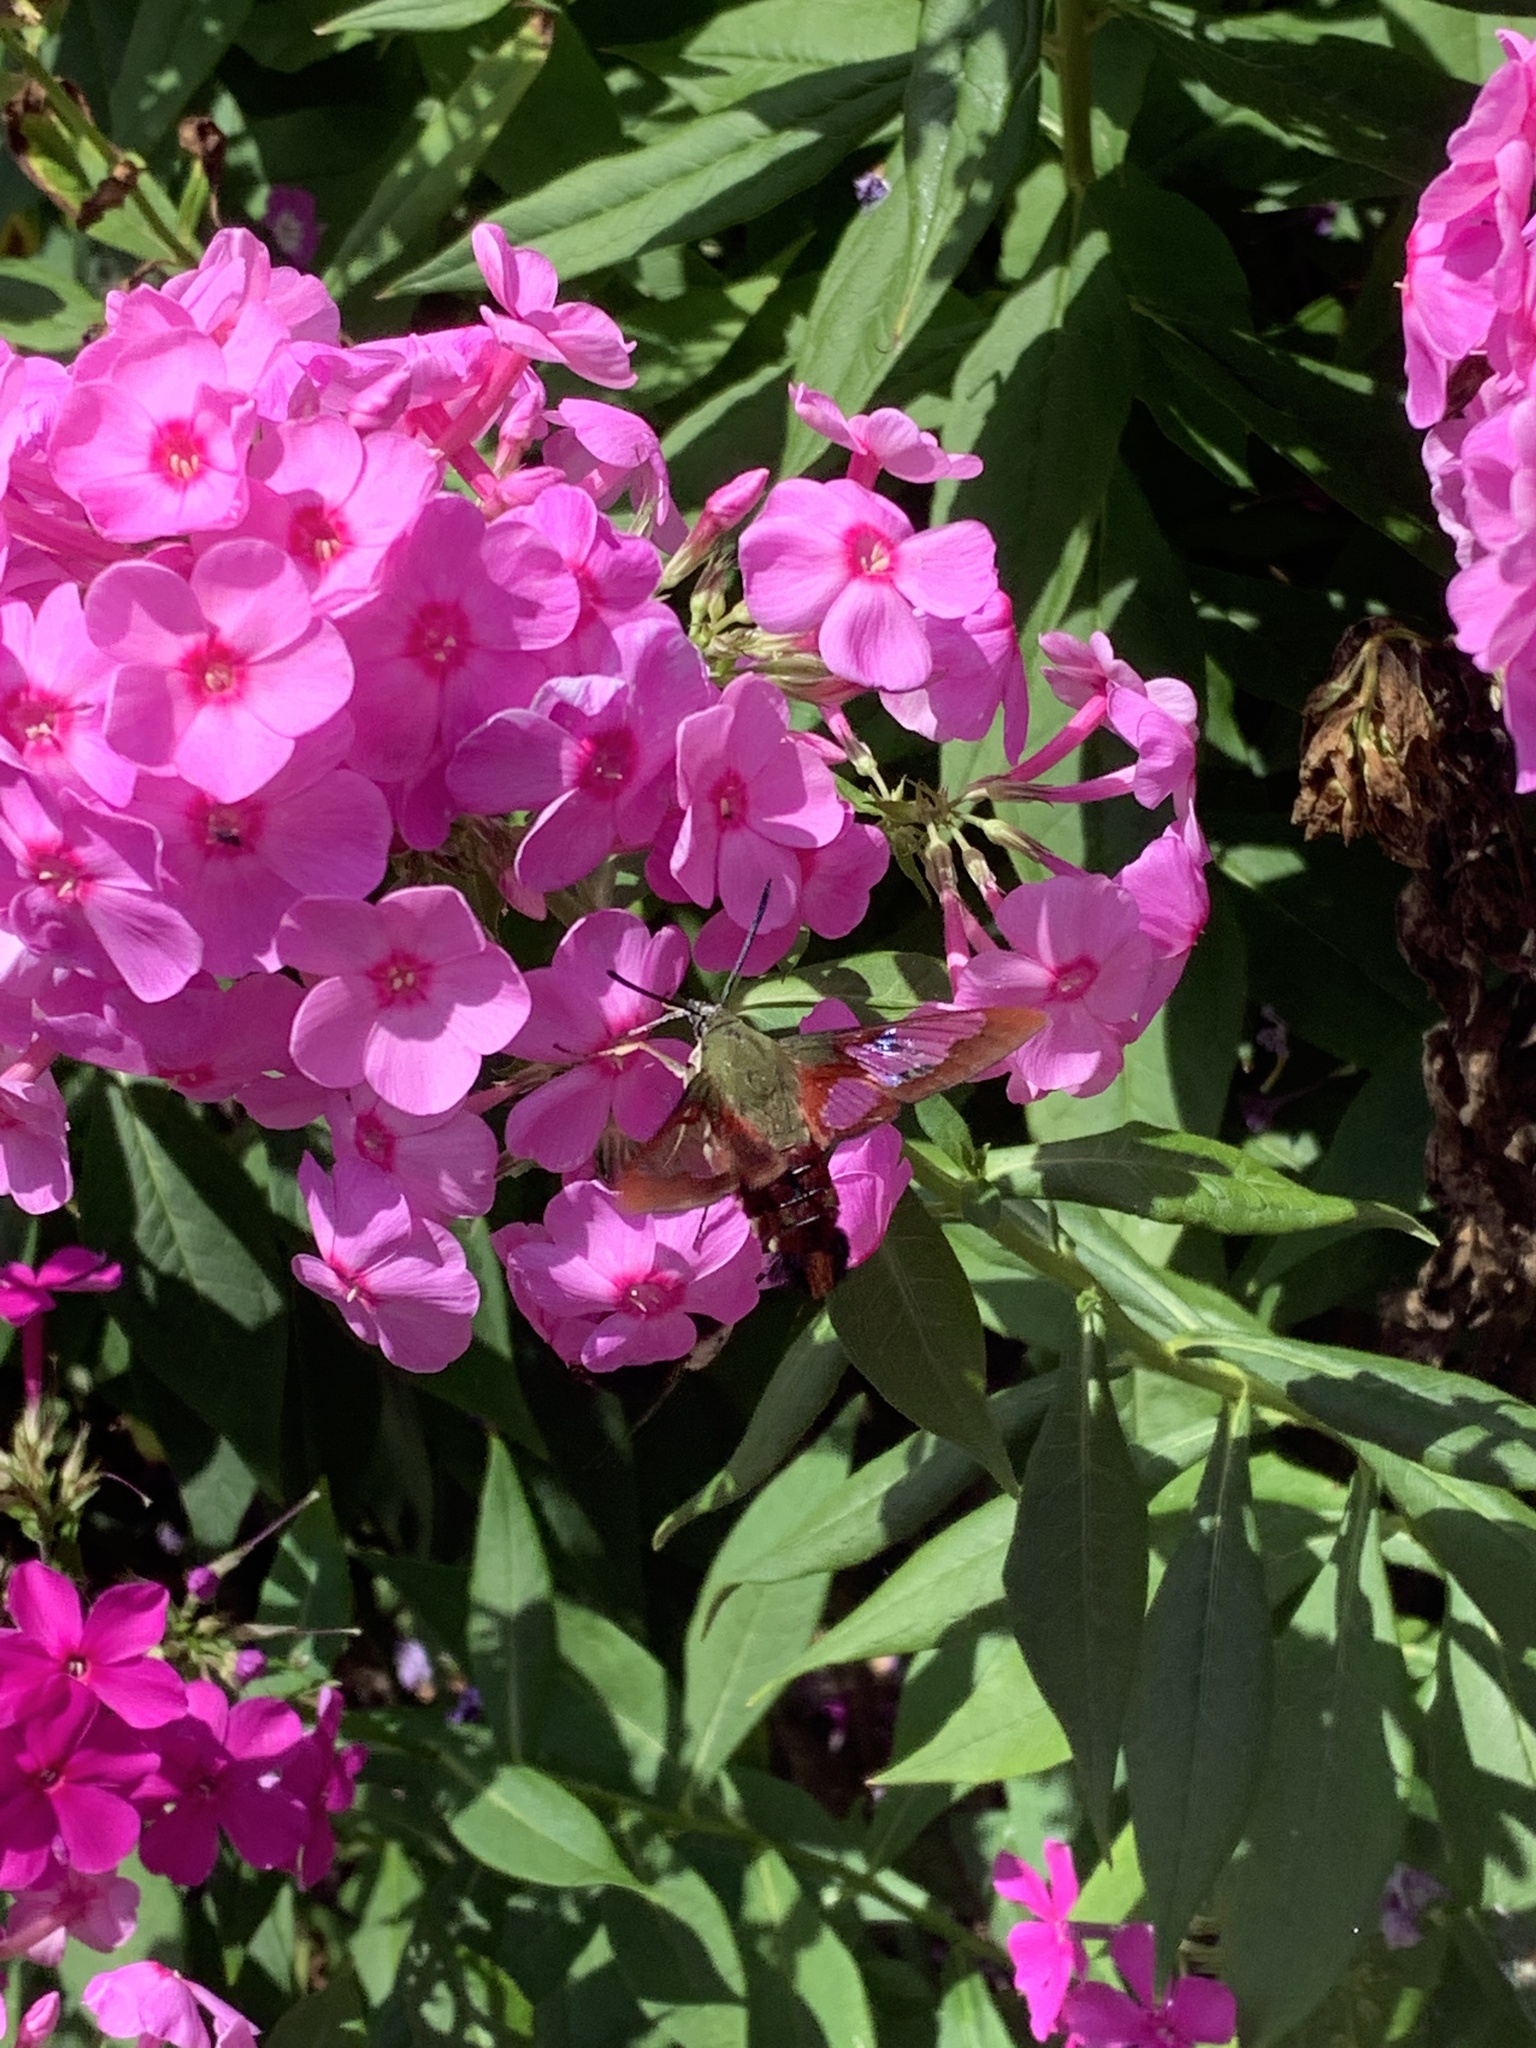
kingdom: Animalia
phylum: Arthropoda
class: Insecta
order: Lepidoptera
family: Sphingidae
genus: Hemaris
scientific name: Hemaris thysbe
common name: Common clear-wing
